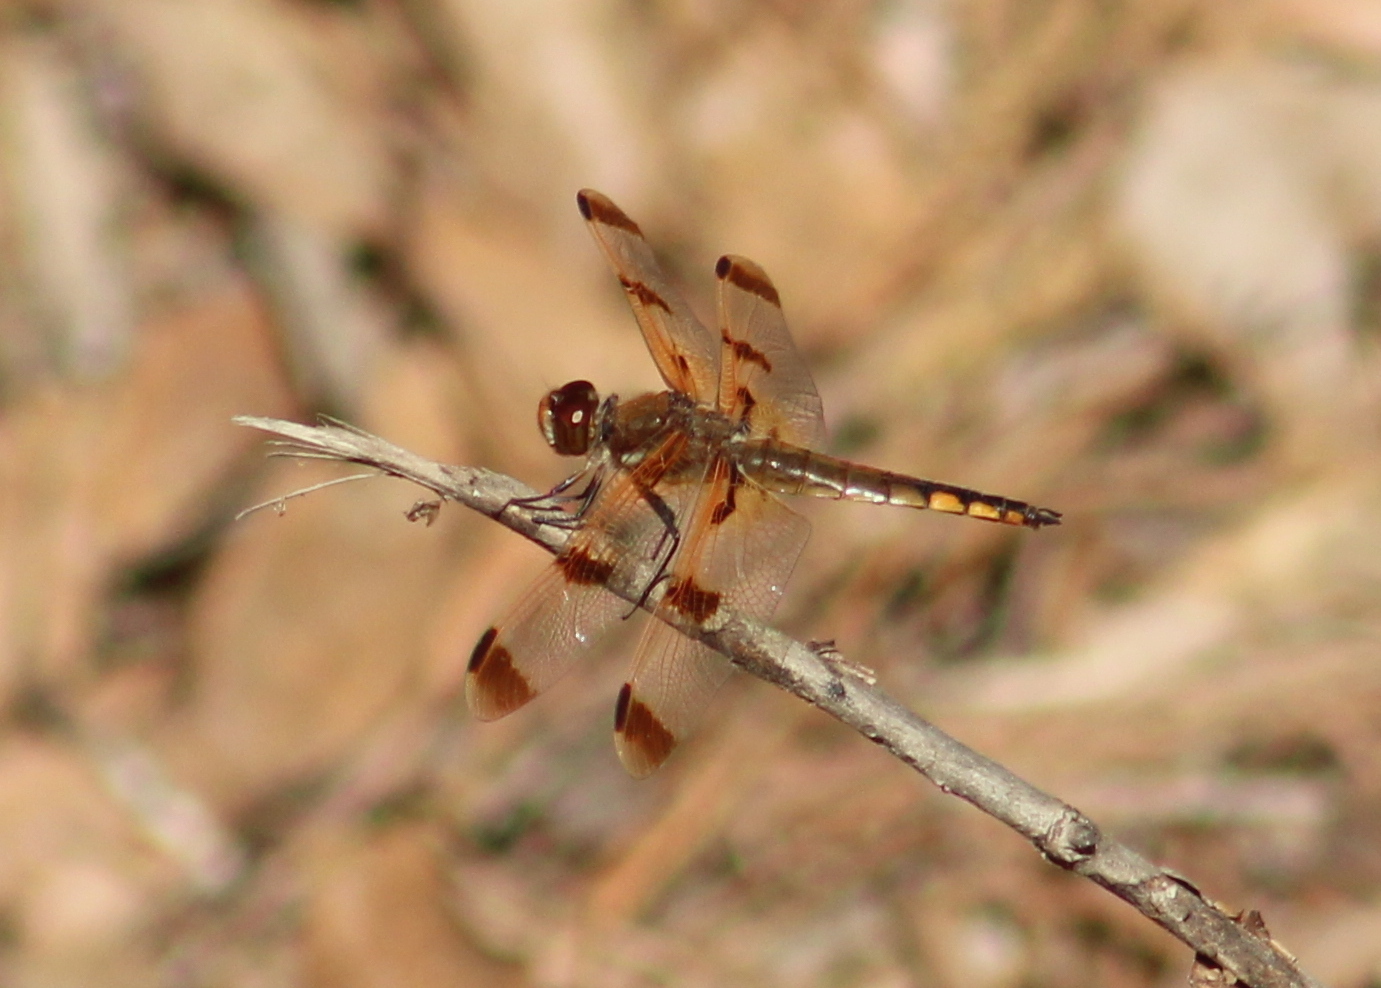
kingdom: Animalia
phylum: Arthropoda
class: Insecta
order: Odonata
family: Libellulidae
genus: Libellula
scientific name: Libellula semifasciata
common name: Painted skimmer
